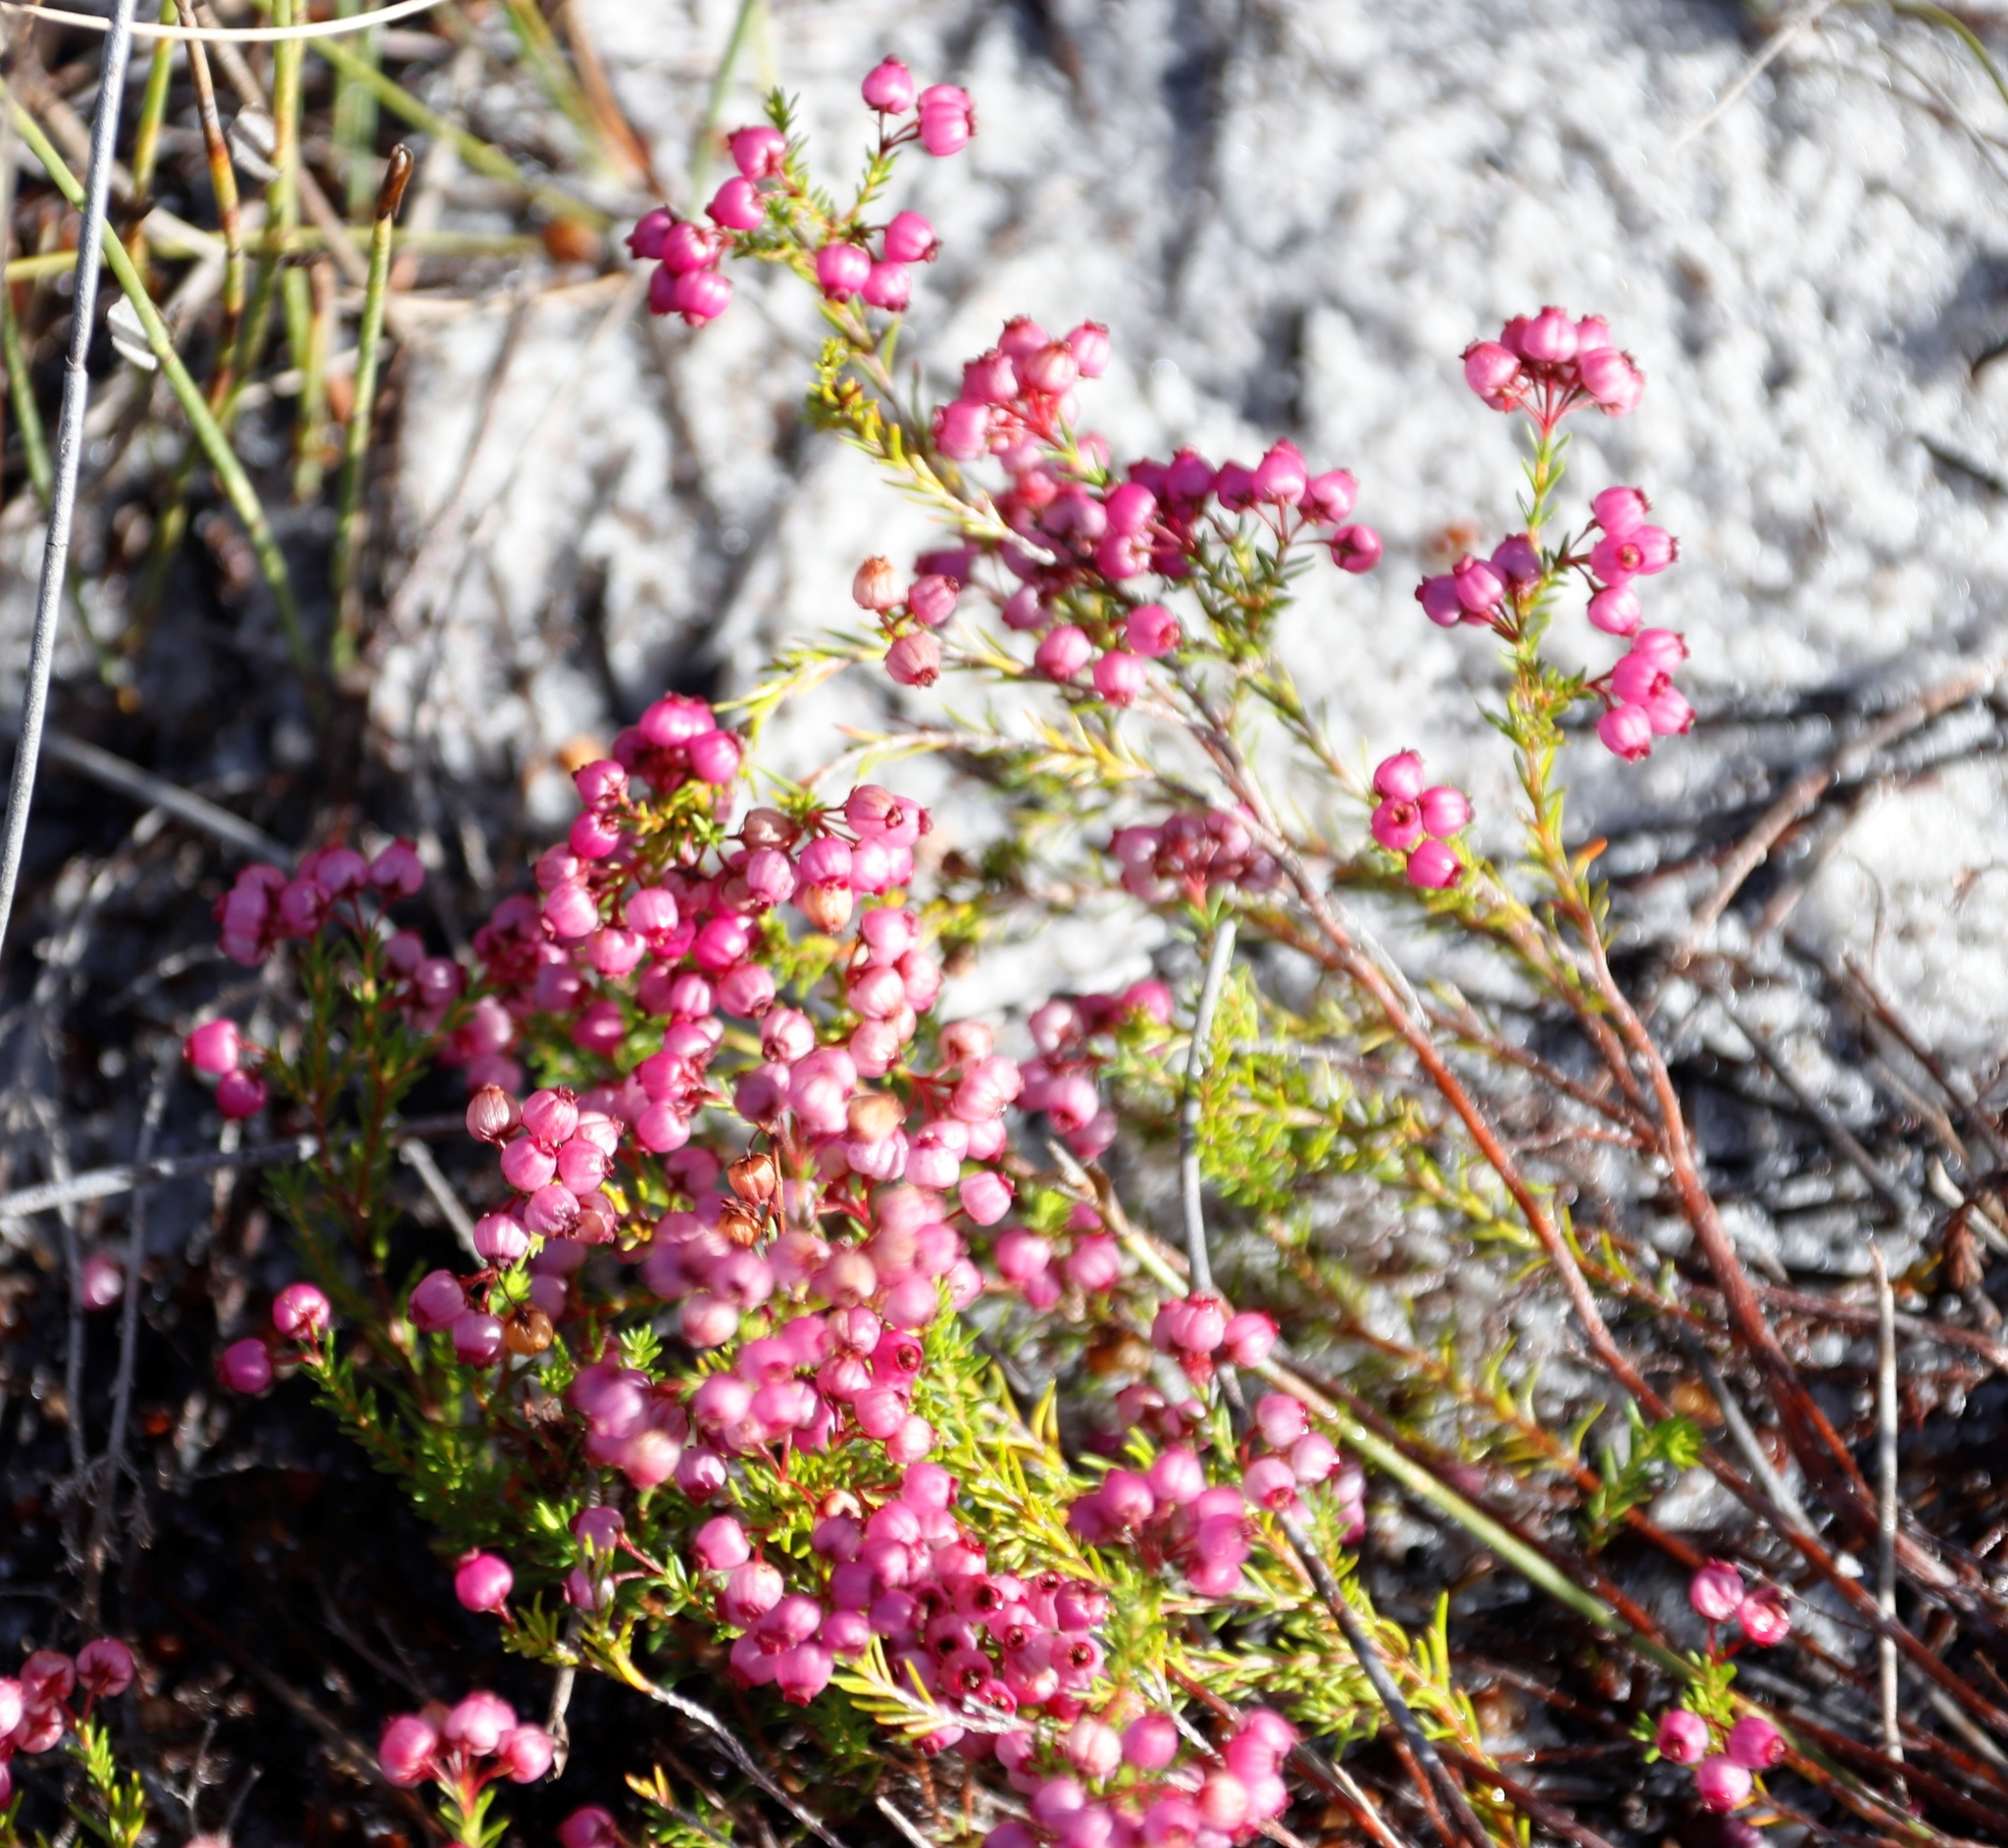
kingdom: Plantae
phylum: Tracheophyta
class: Magnoliopsida
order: Ericales
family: Ericaceae
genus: Erica
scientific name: Erica multumbellifera
